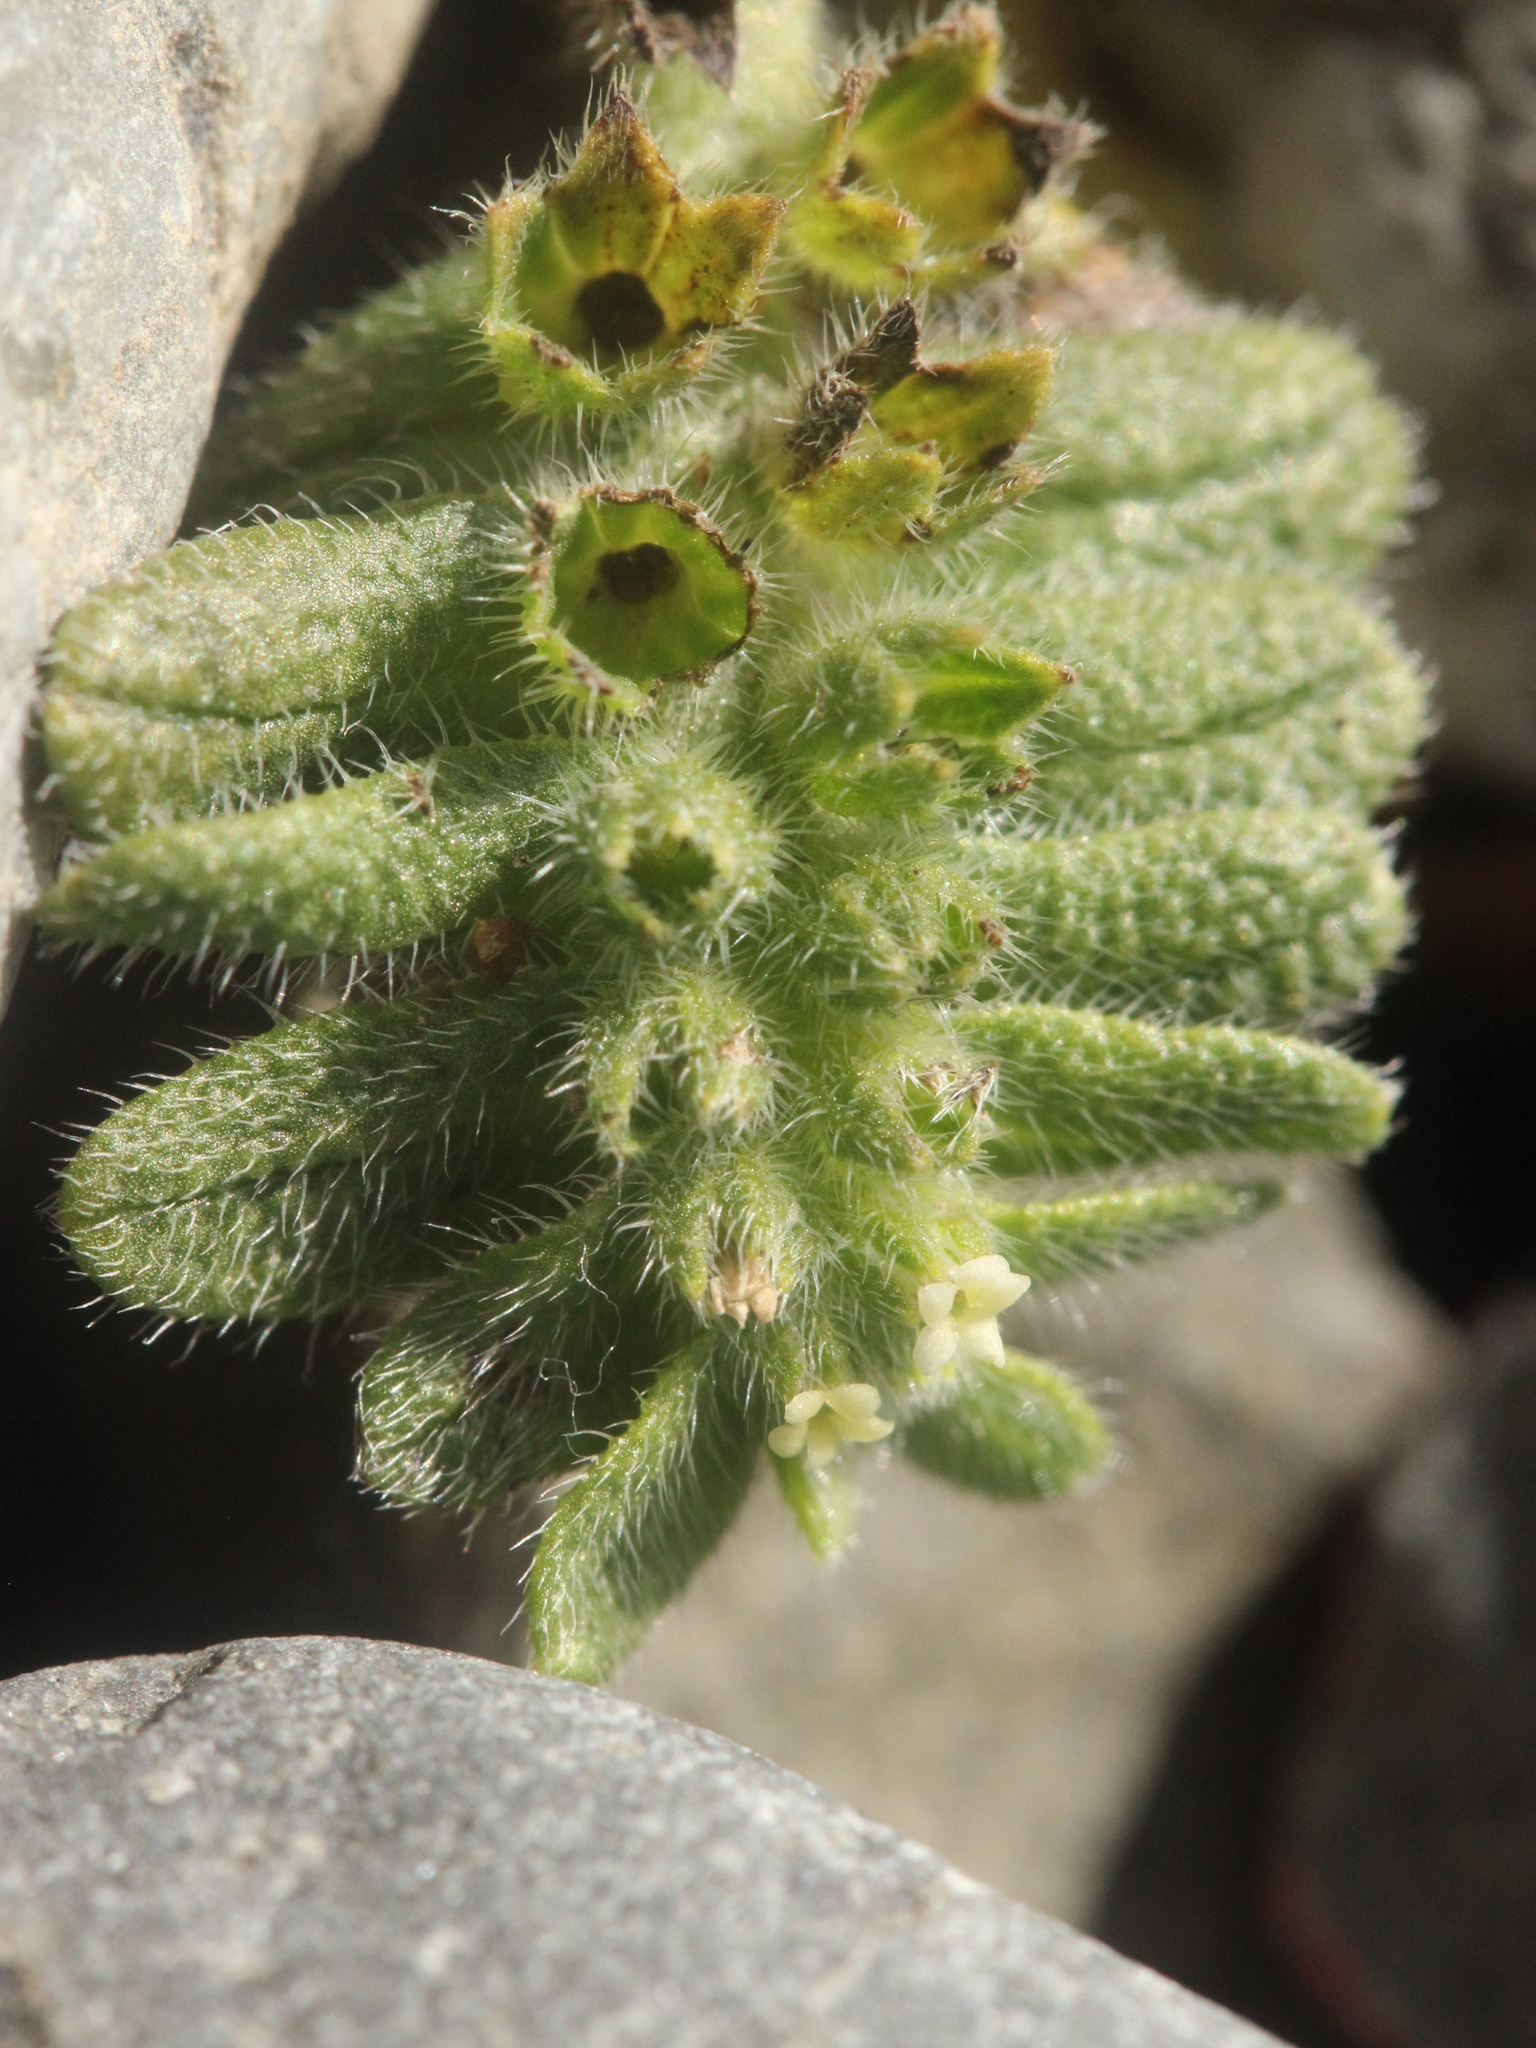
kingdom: Plantae
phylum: Tracheophyta
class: Magnoliopsida
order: Boraginales
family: Boraginaceae
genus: Myosotis
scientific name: Myosotis brevis
